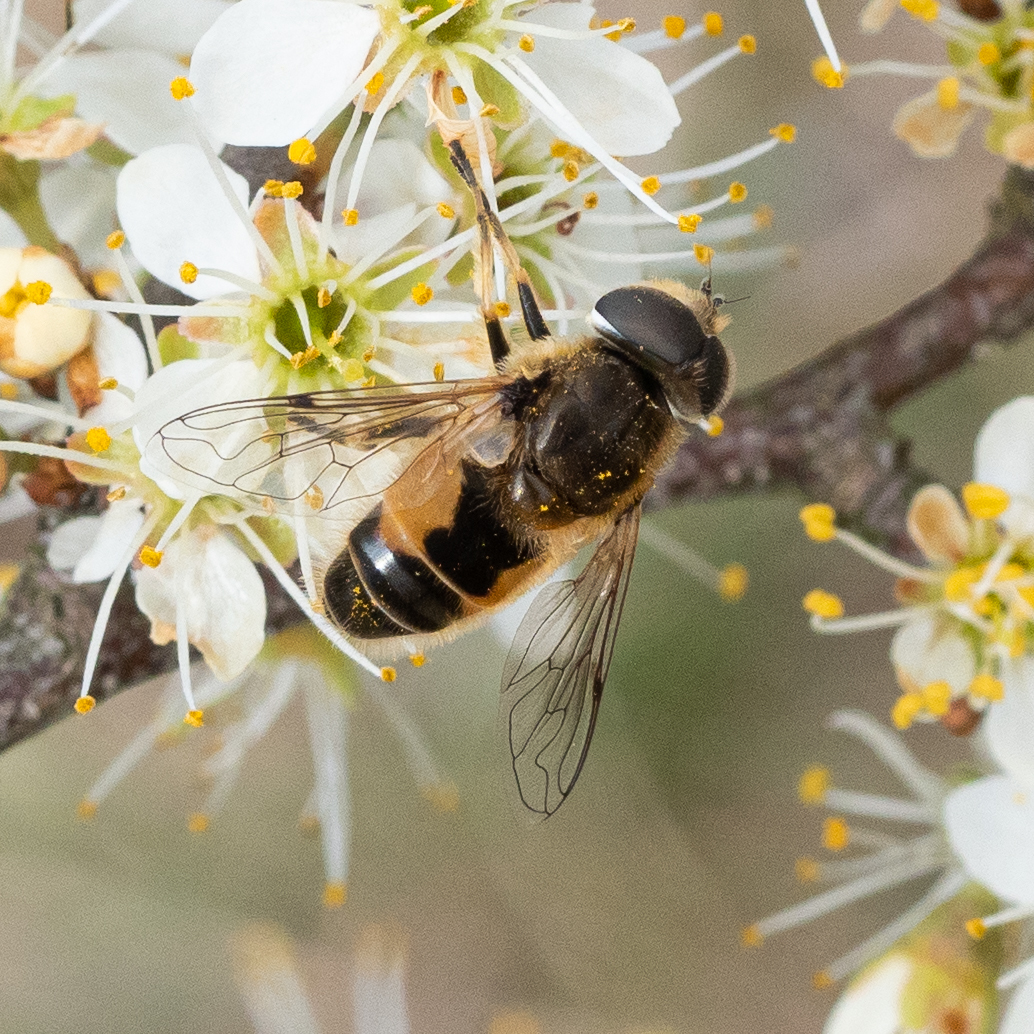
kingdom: Animalia
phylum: Arthropoda
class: Insecta
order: Diptera
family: Syrphidae
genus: Eristalis
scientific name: Eristalis arbustorum
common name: Hover fly
